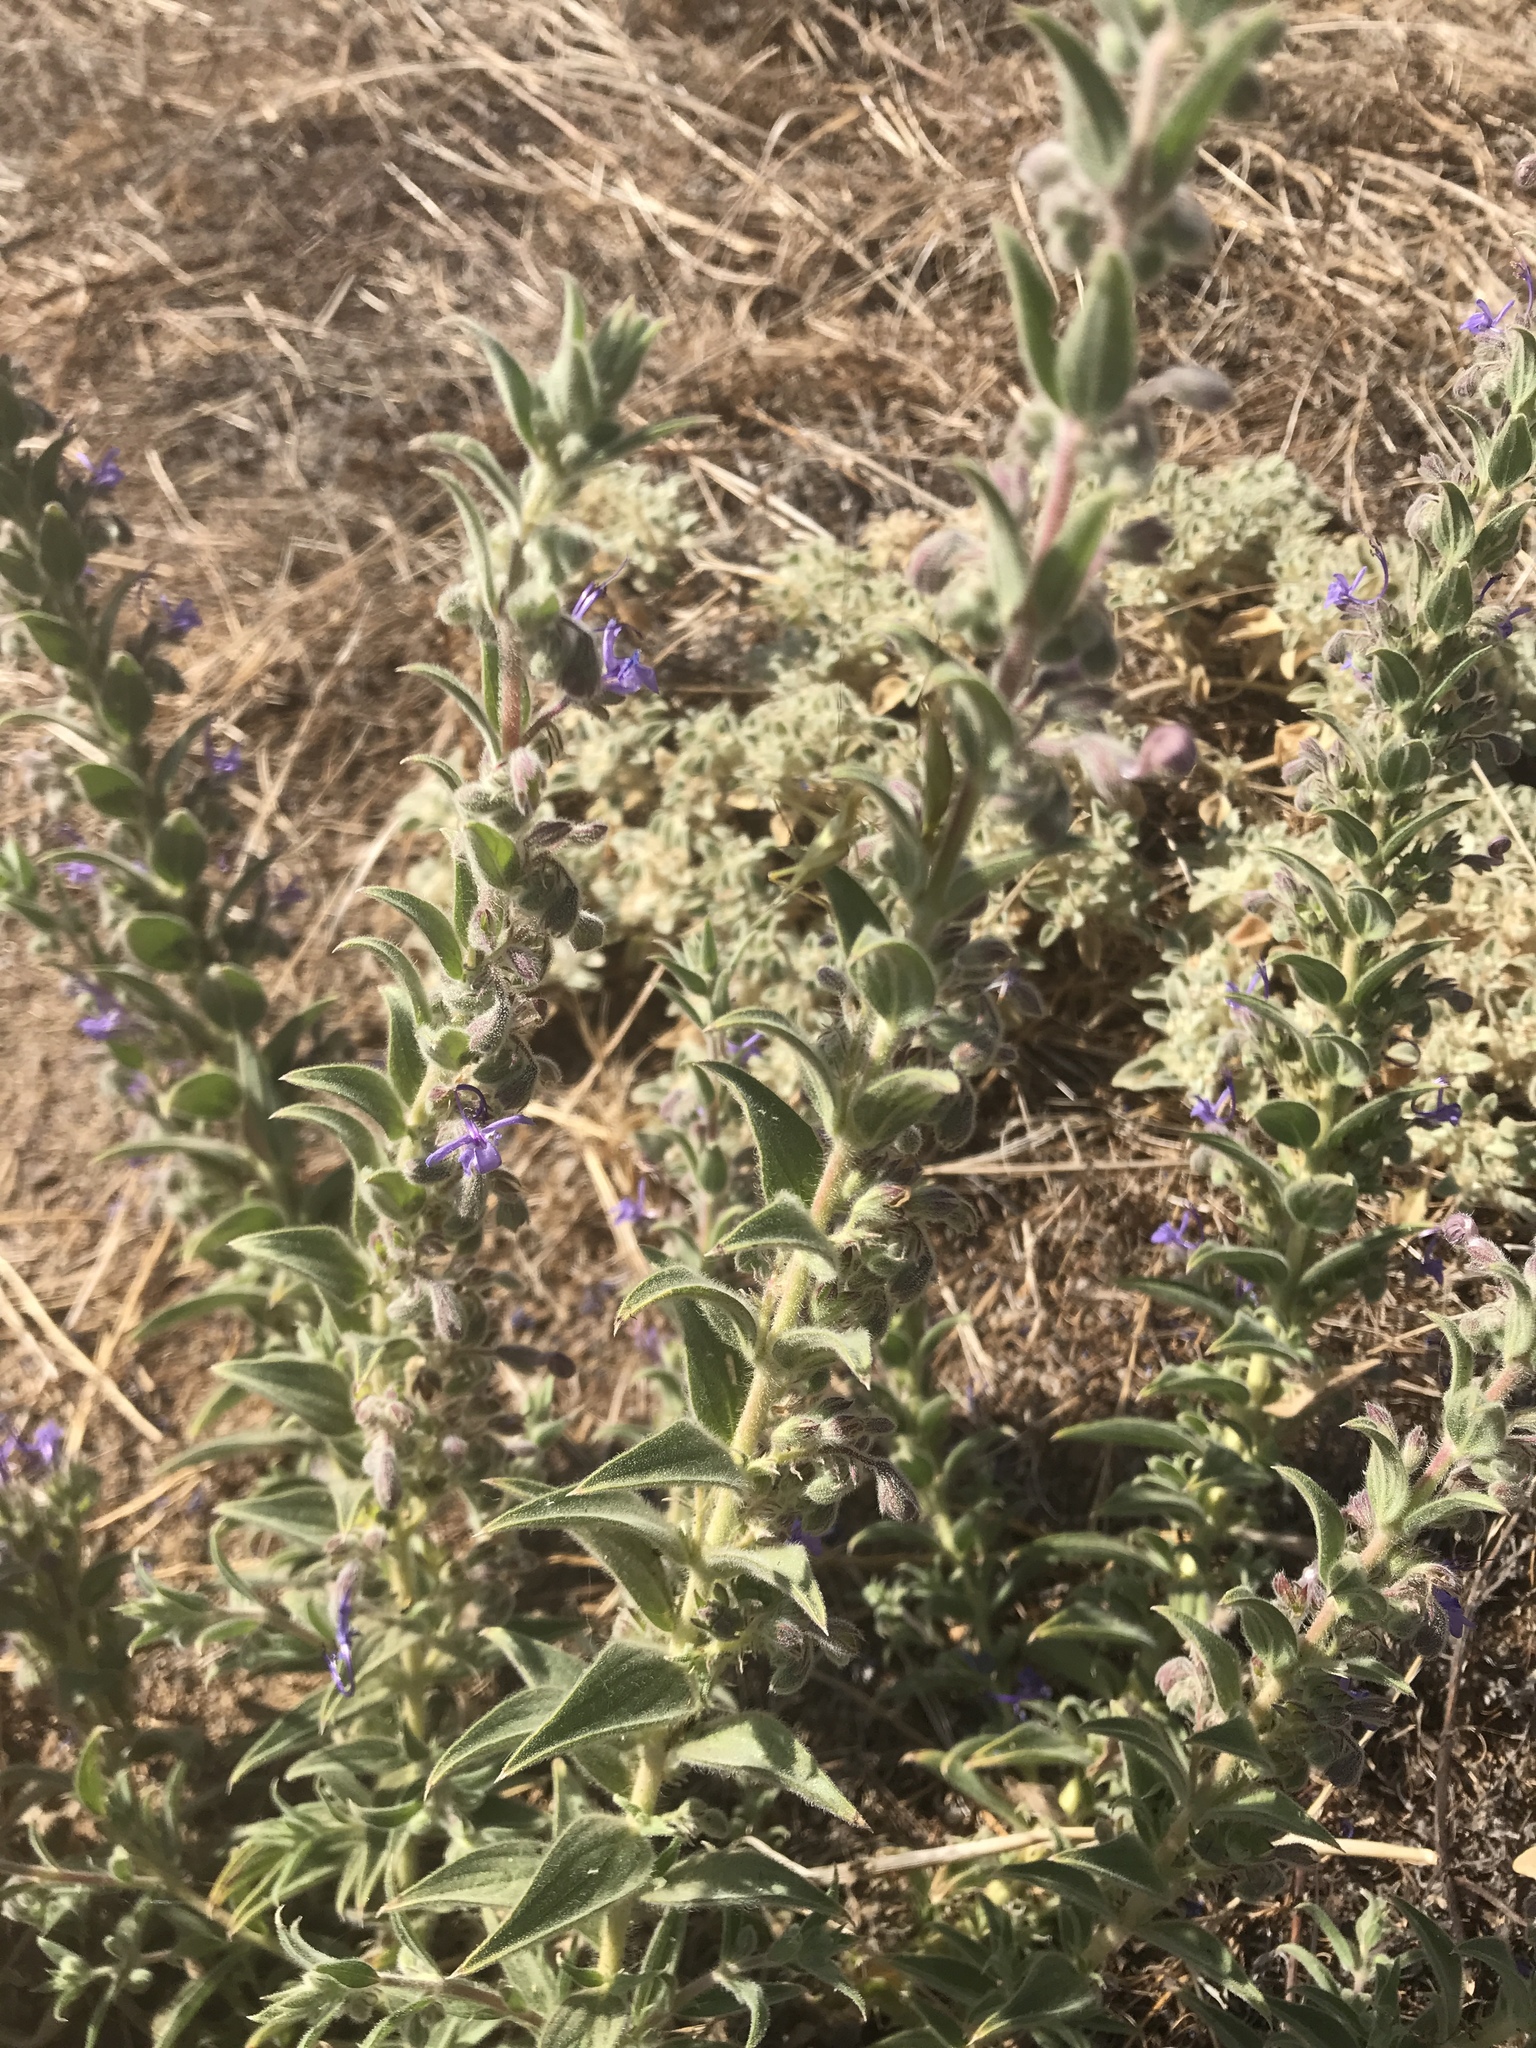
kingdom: Plantae
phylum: Tracheophyta
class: Magnoliopsida
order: Lamiales
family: Lamiaceae
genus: Trichostema
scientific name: Trichostema lanceolatum
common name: Vinegar-weed
